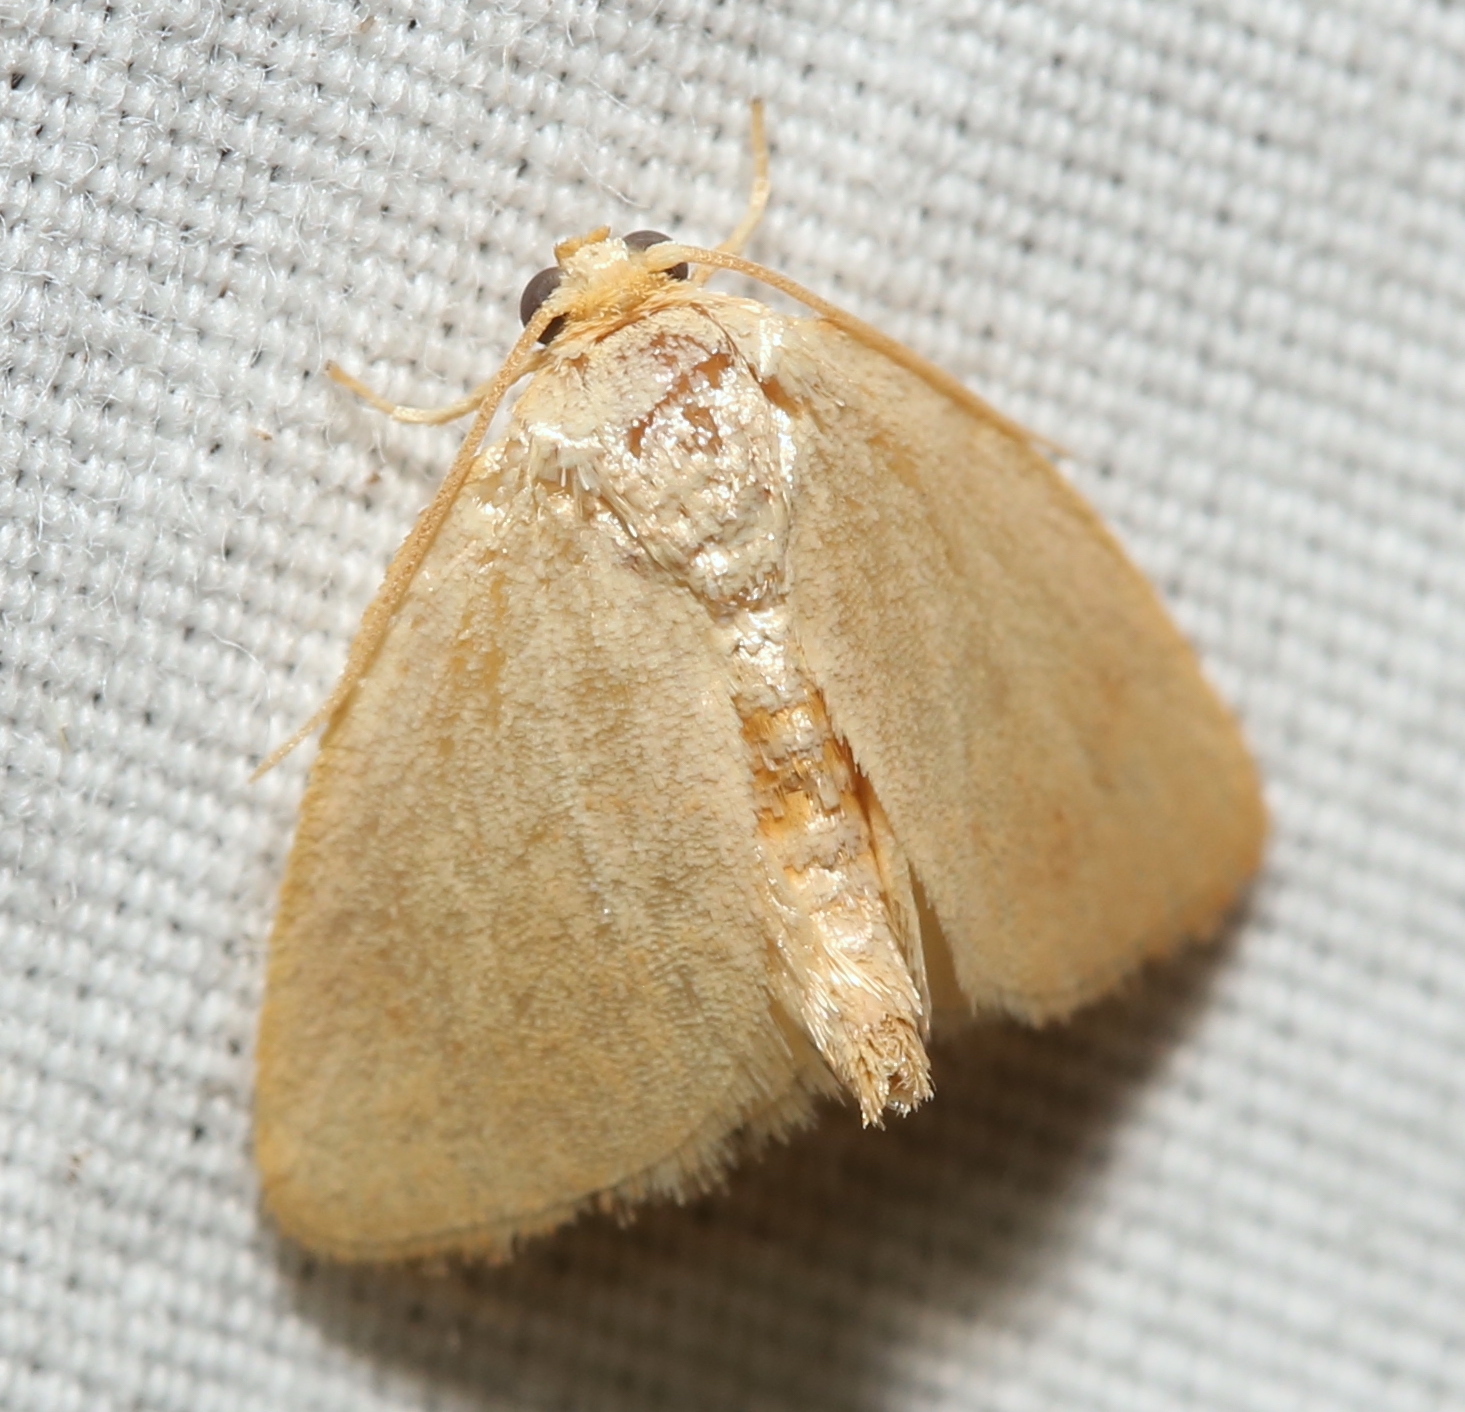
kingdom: Animalia
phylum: Arthropoda
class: Insecta
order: Lepidoptera
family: Limacodidae
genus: Tortricidia
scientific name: Tortricidia pallida
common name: Red-crossed button slug moth
